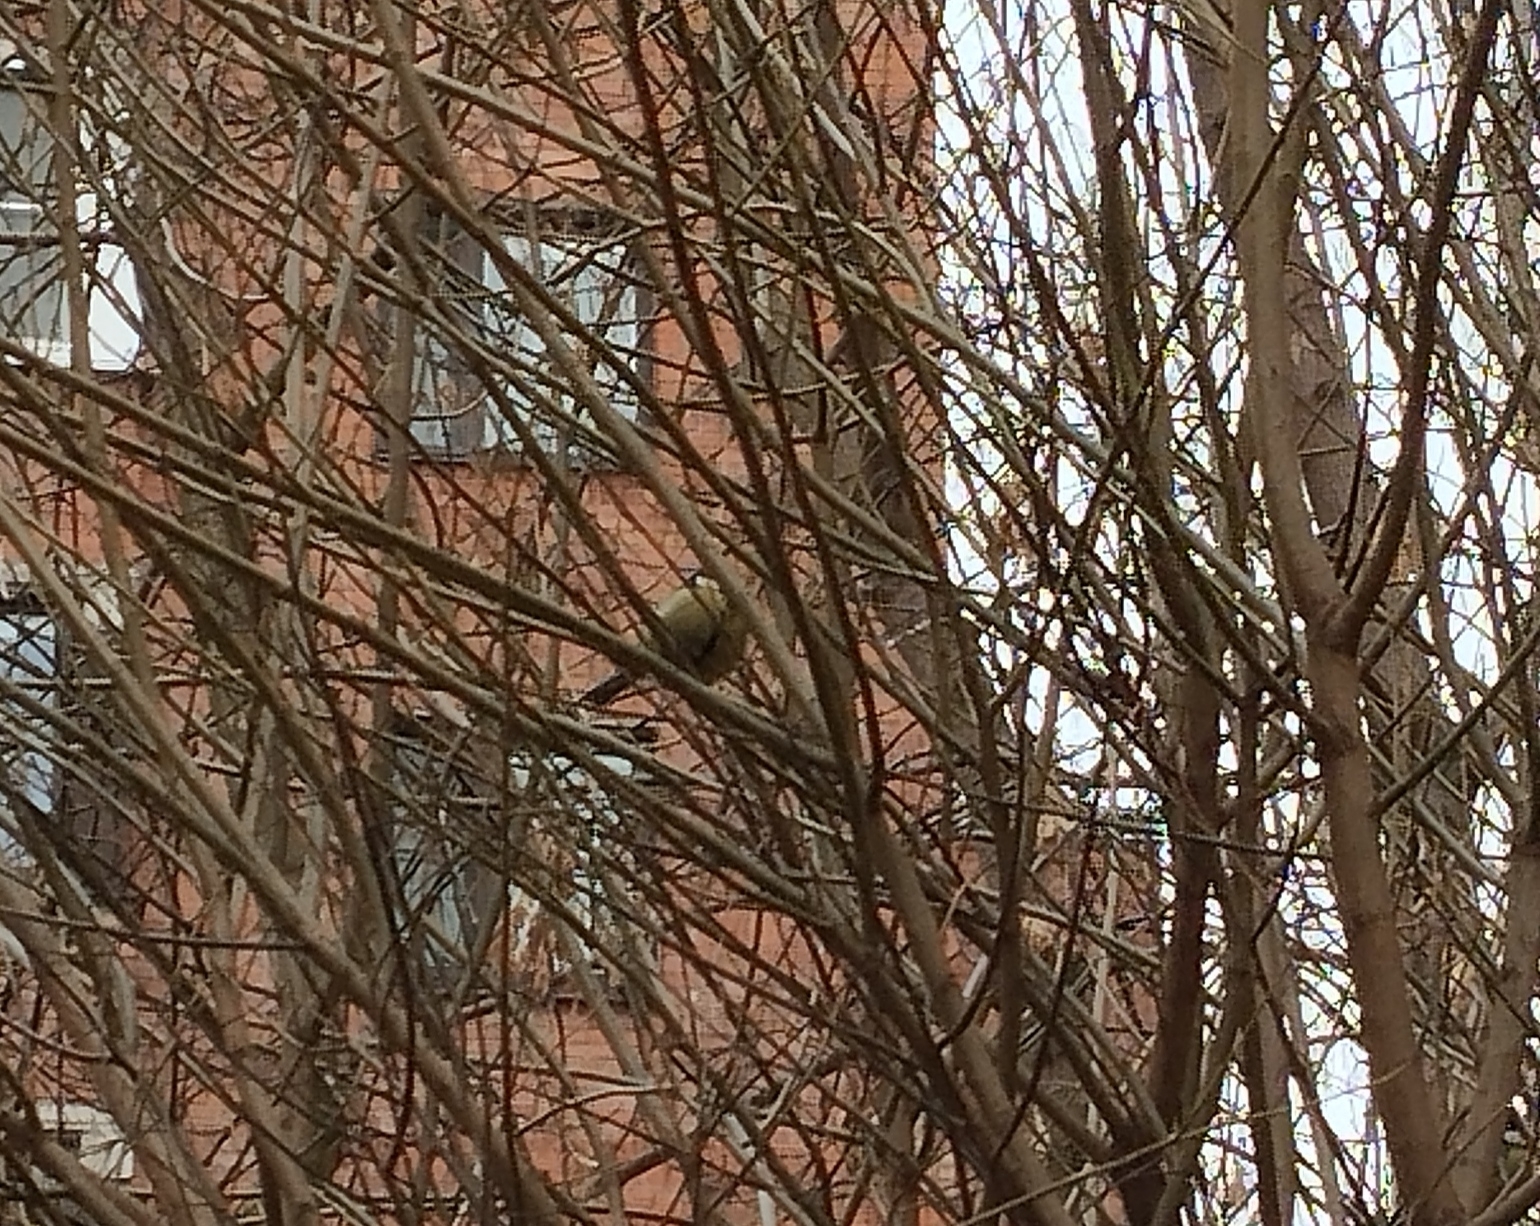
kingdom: Animalia
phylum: Chordata
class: Aves
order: Passeriformes
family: Paridae
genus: Parus
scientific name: Parus major
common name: Great tit
